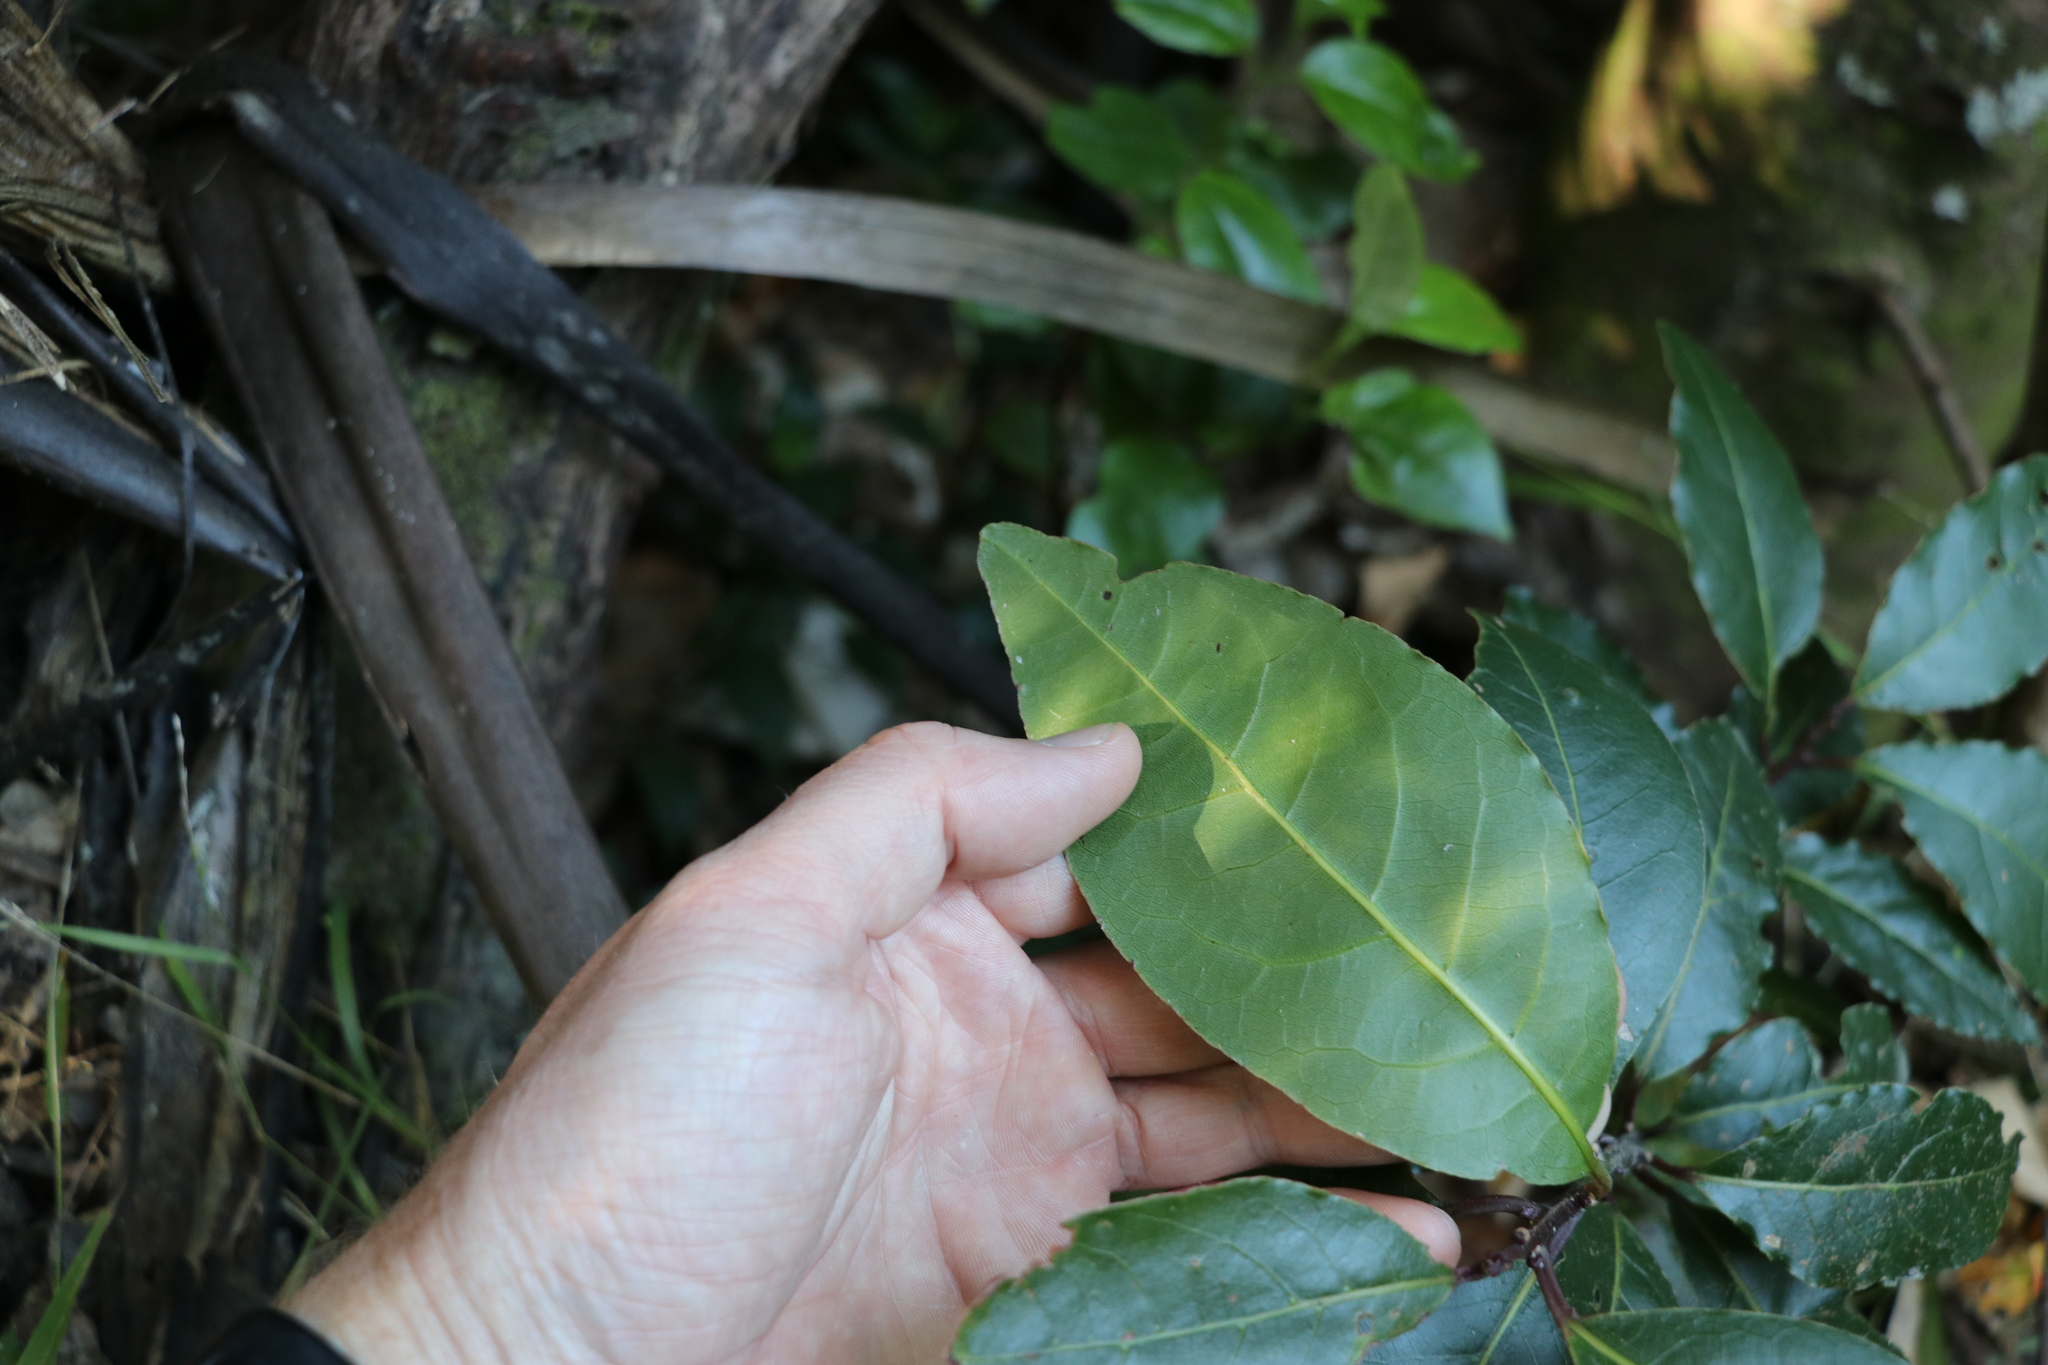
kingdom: Plantae
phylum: Tracheophyta
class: Magnoliopsida
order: Laurales
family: Lauraceae
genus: Laurus
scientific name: Laurus nobilis
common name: Bay
